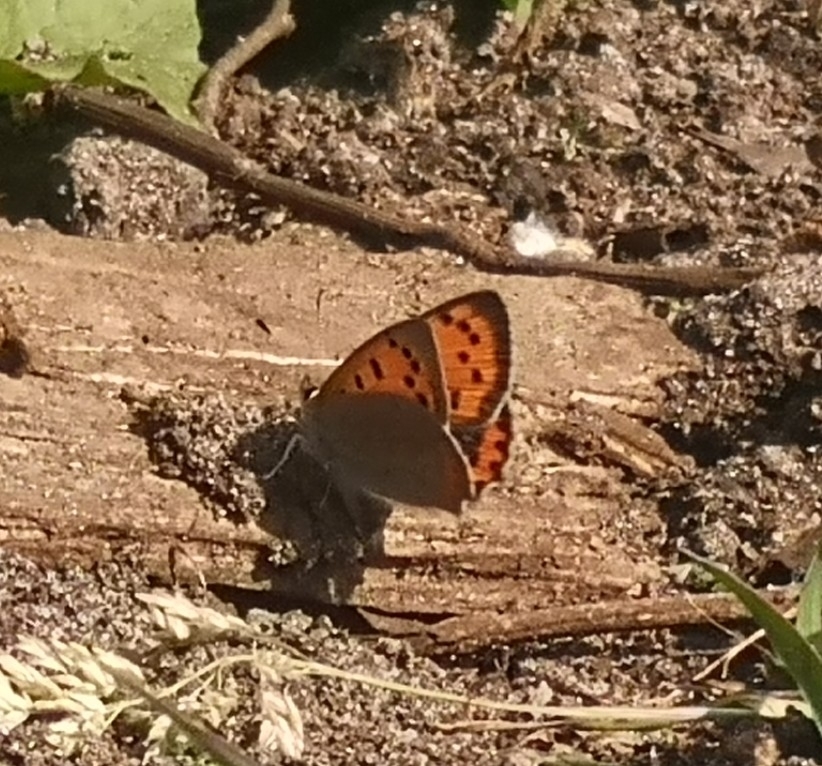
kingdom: Animalia
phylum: Arthropoda
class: Insecta
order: Lepidoptera
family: Lycaenidae
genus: Lycaena
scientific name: Lycaena phlaeas
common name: Small copper
